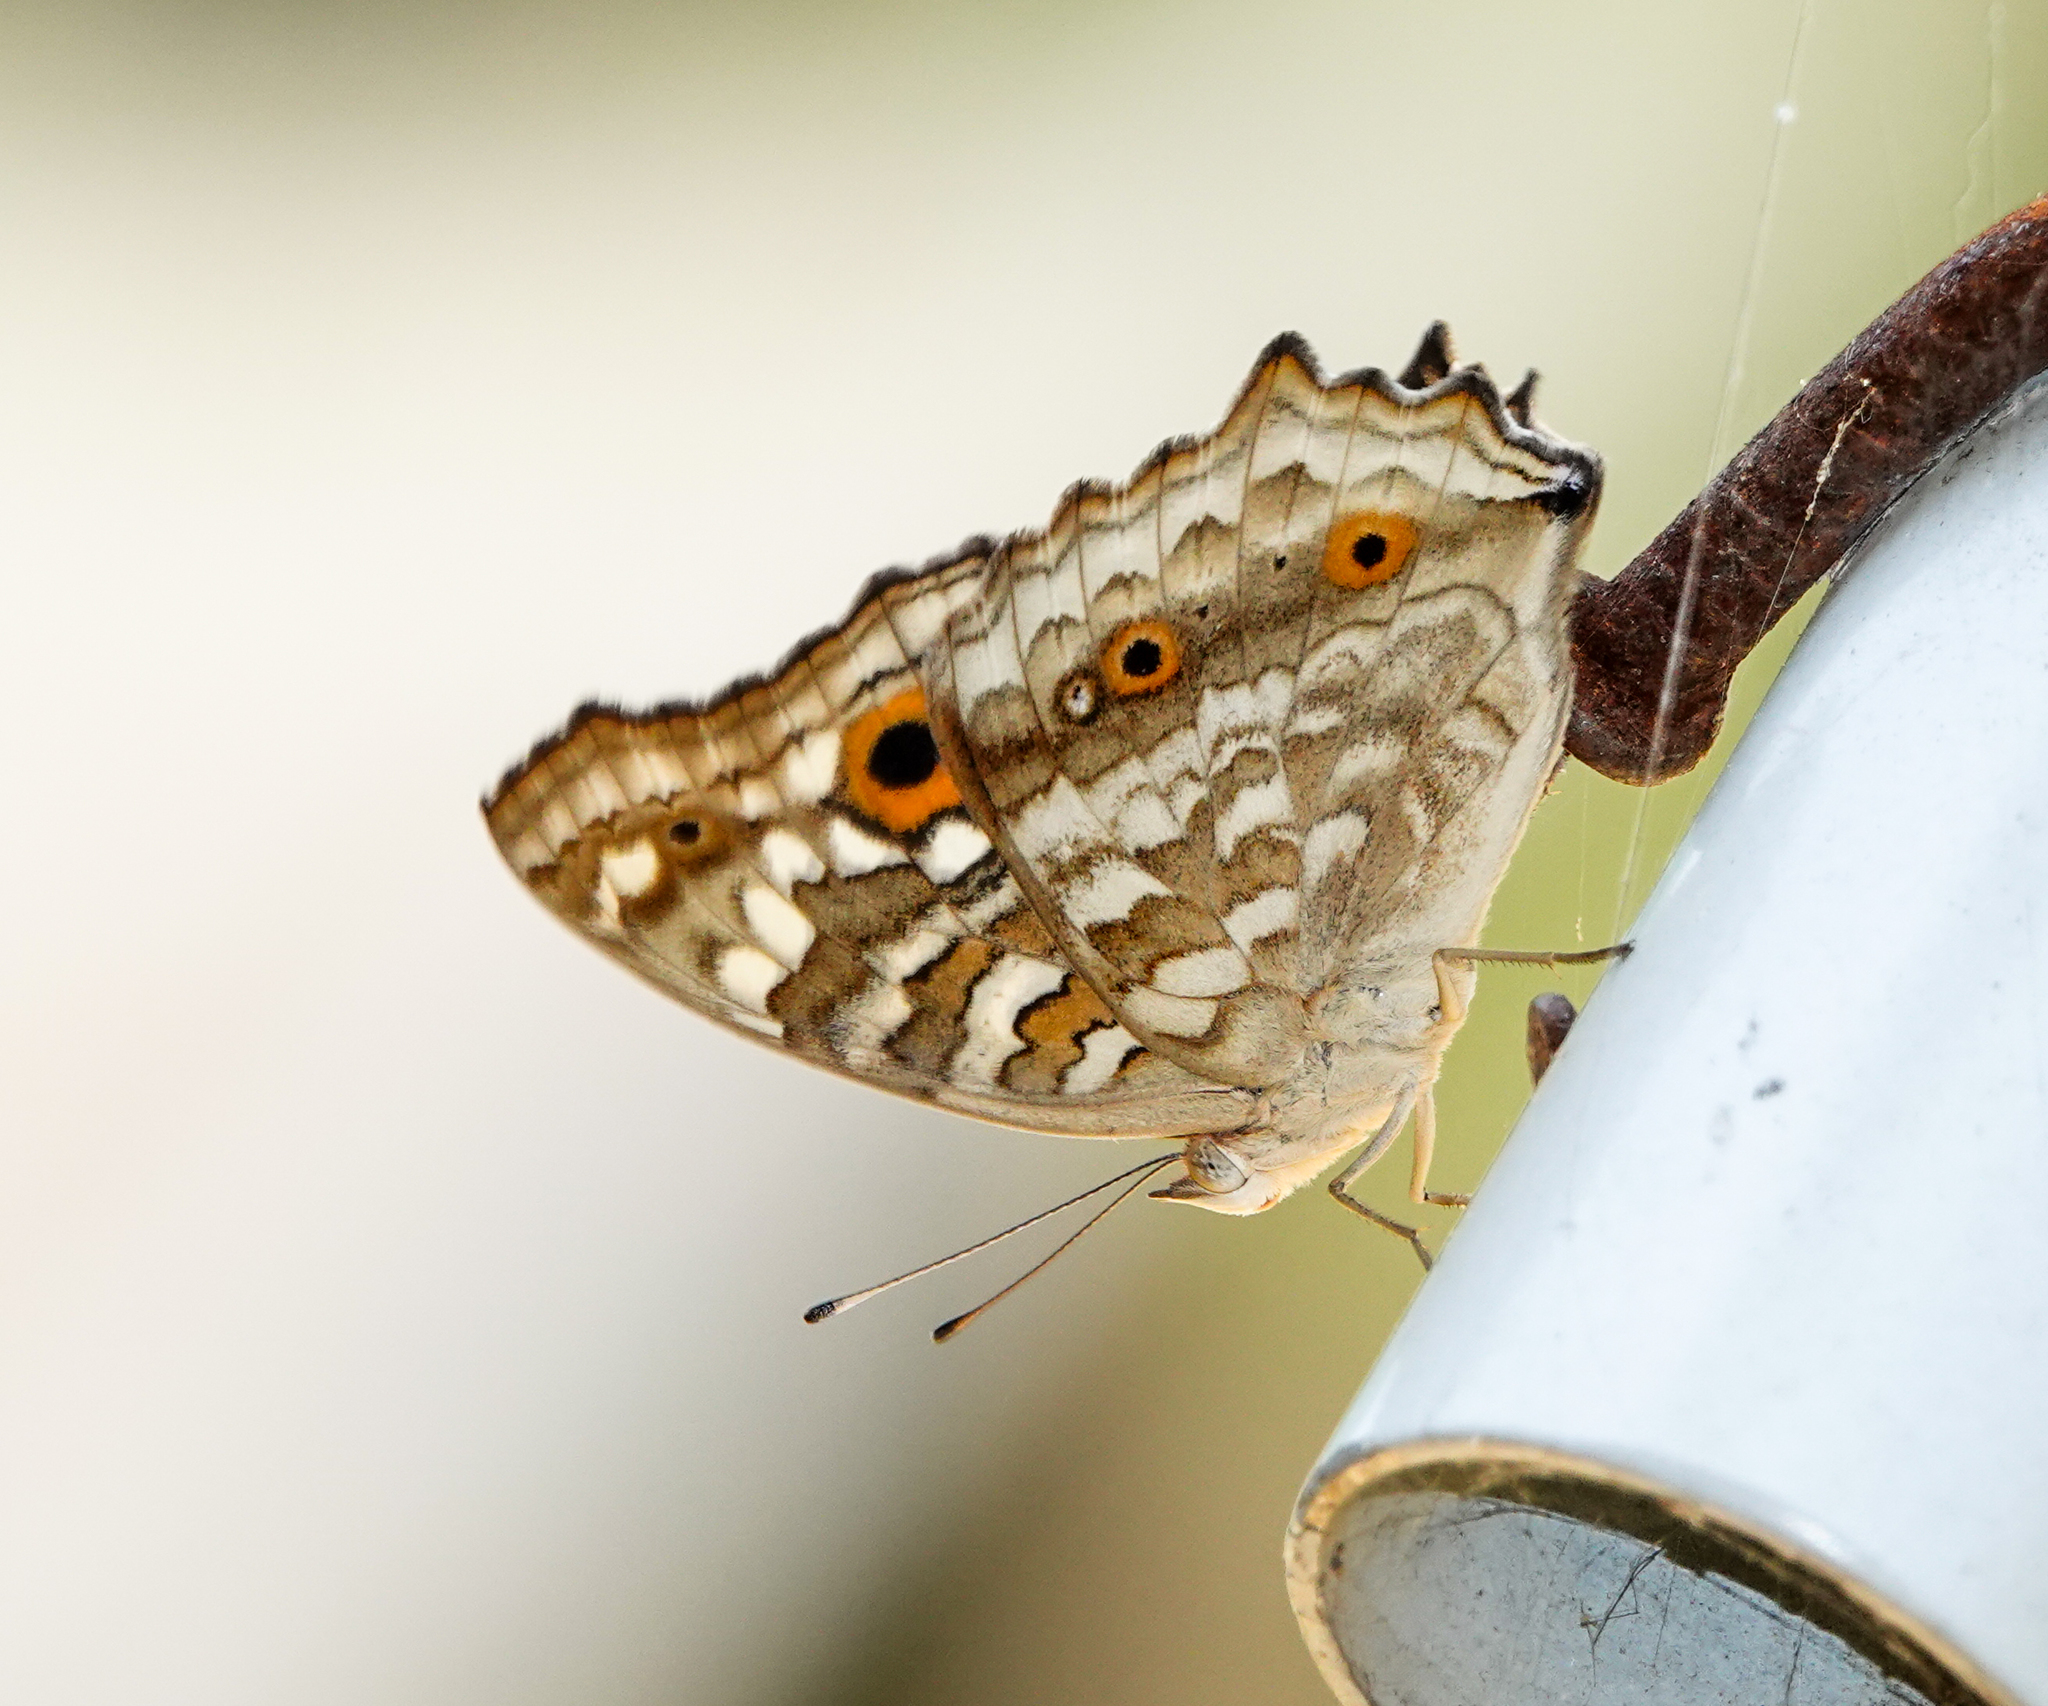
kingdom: Animalia
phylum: Arthropoda
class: Insecta
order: Lepidoptera
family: Nymphalidae
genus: Junonia
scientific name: Junonia lemonias
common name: Lemon pansy
